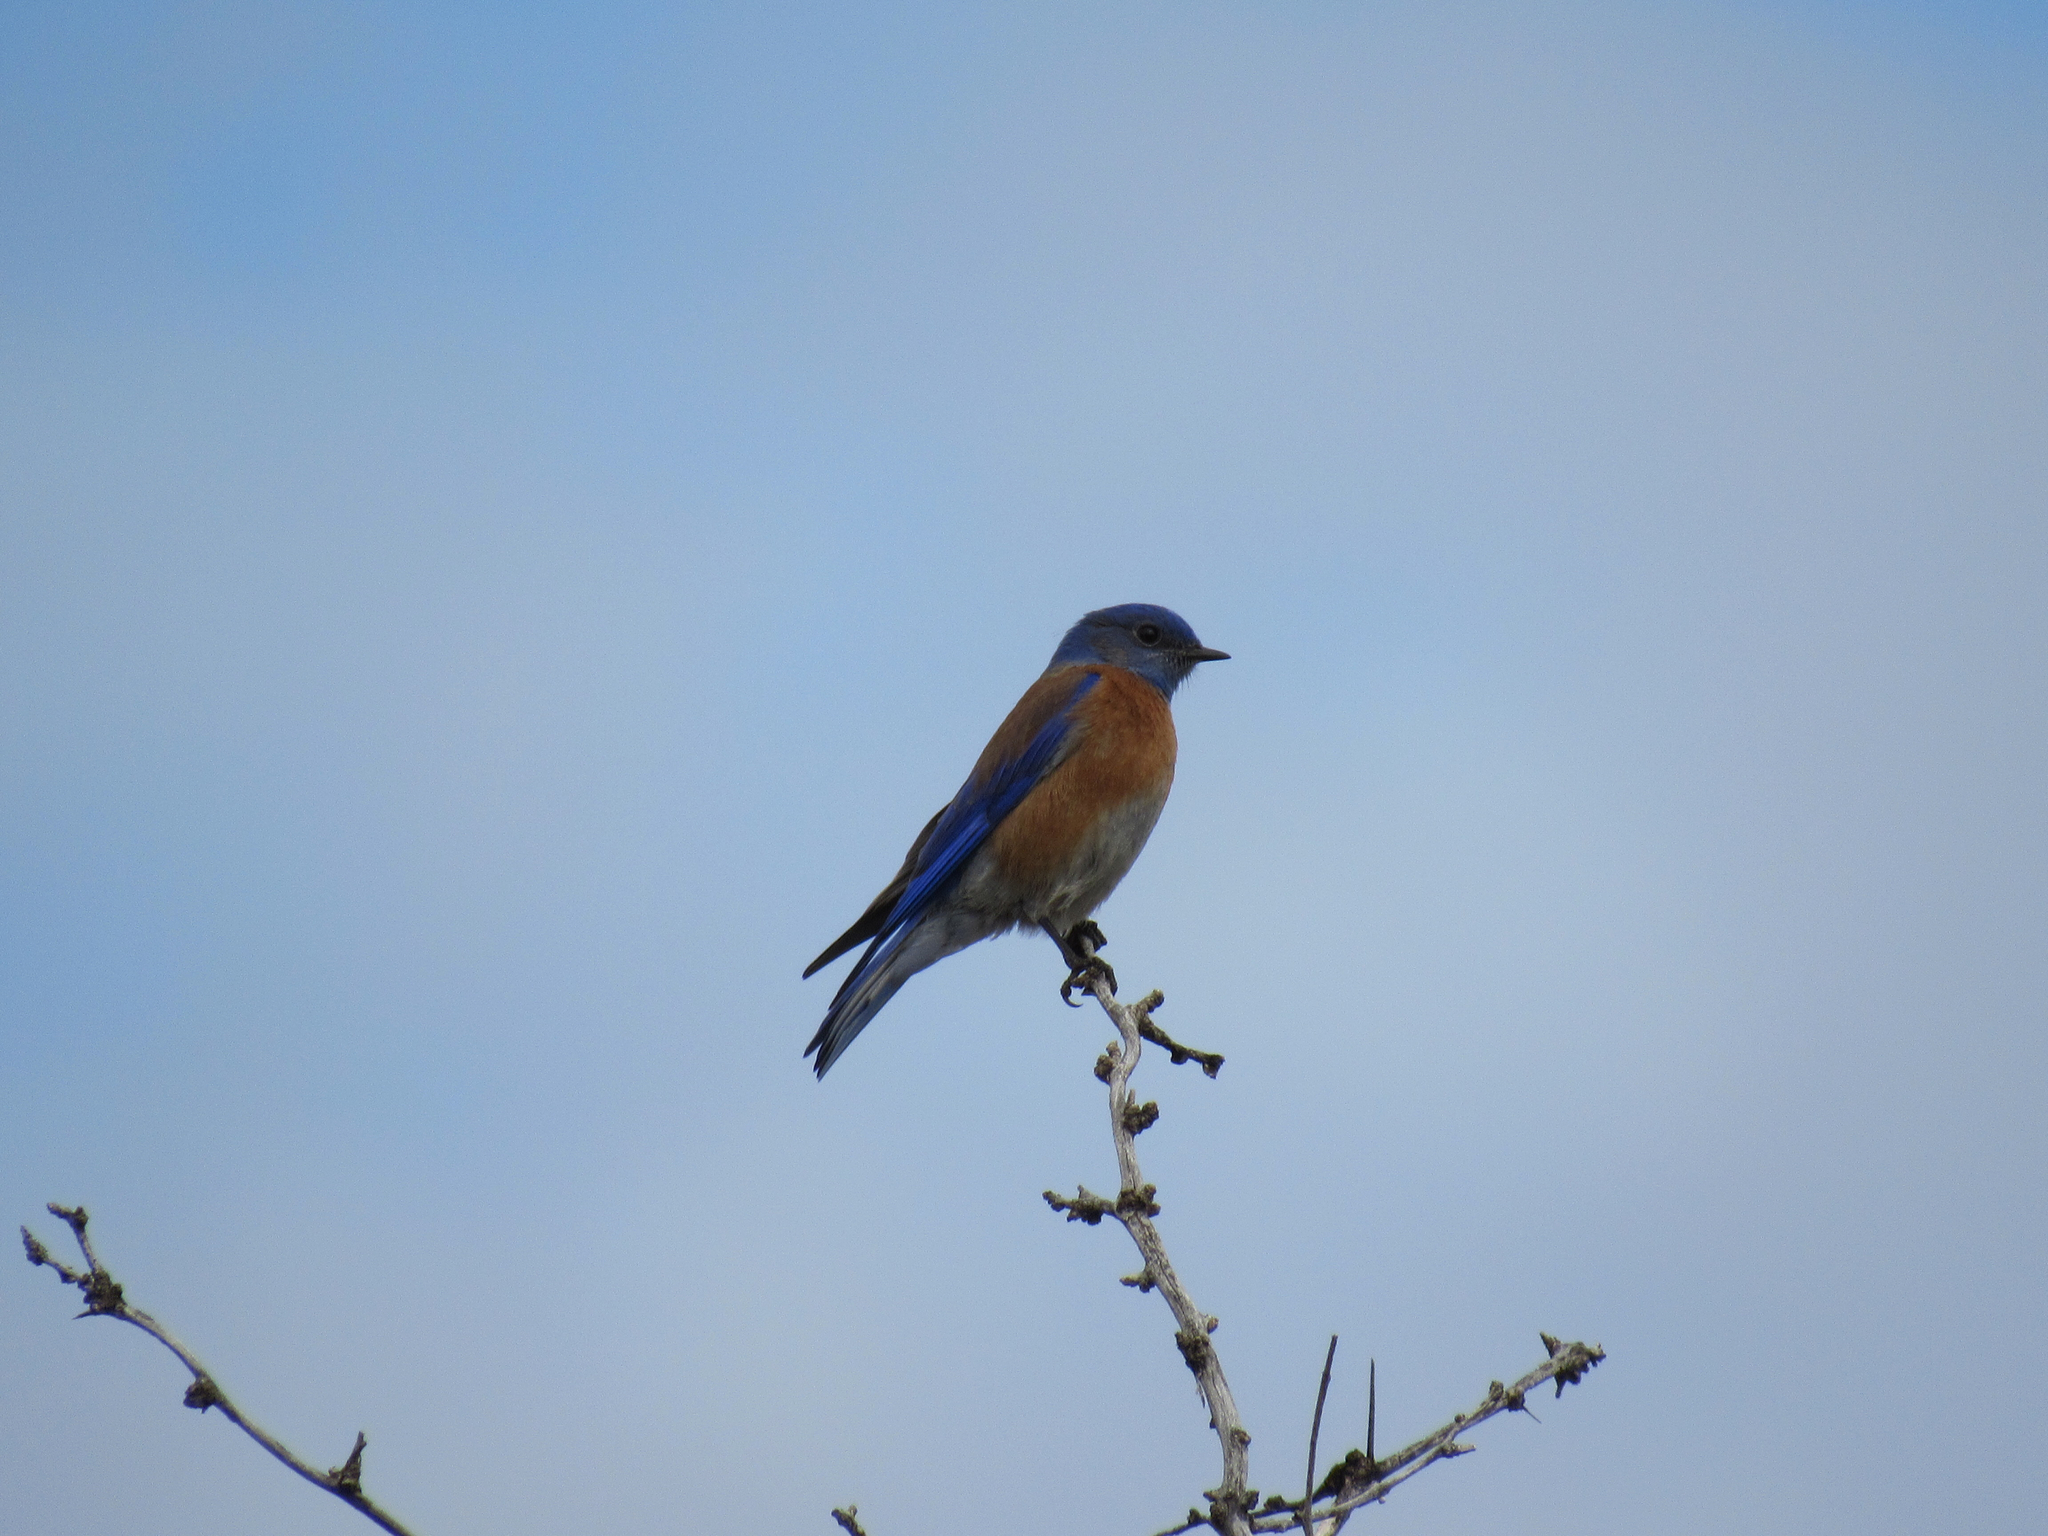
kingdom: Animalia
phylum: Chordata
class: Aves
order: Passeriformes
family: Turdidae
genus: Sialia
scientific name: Sialia mexicana
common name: Western bluebird
